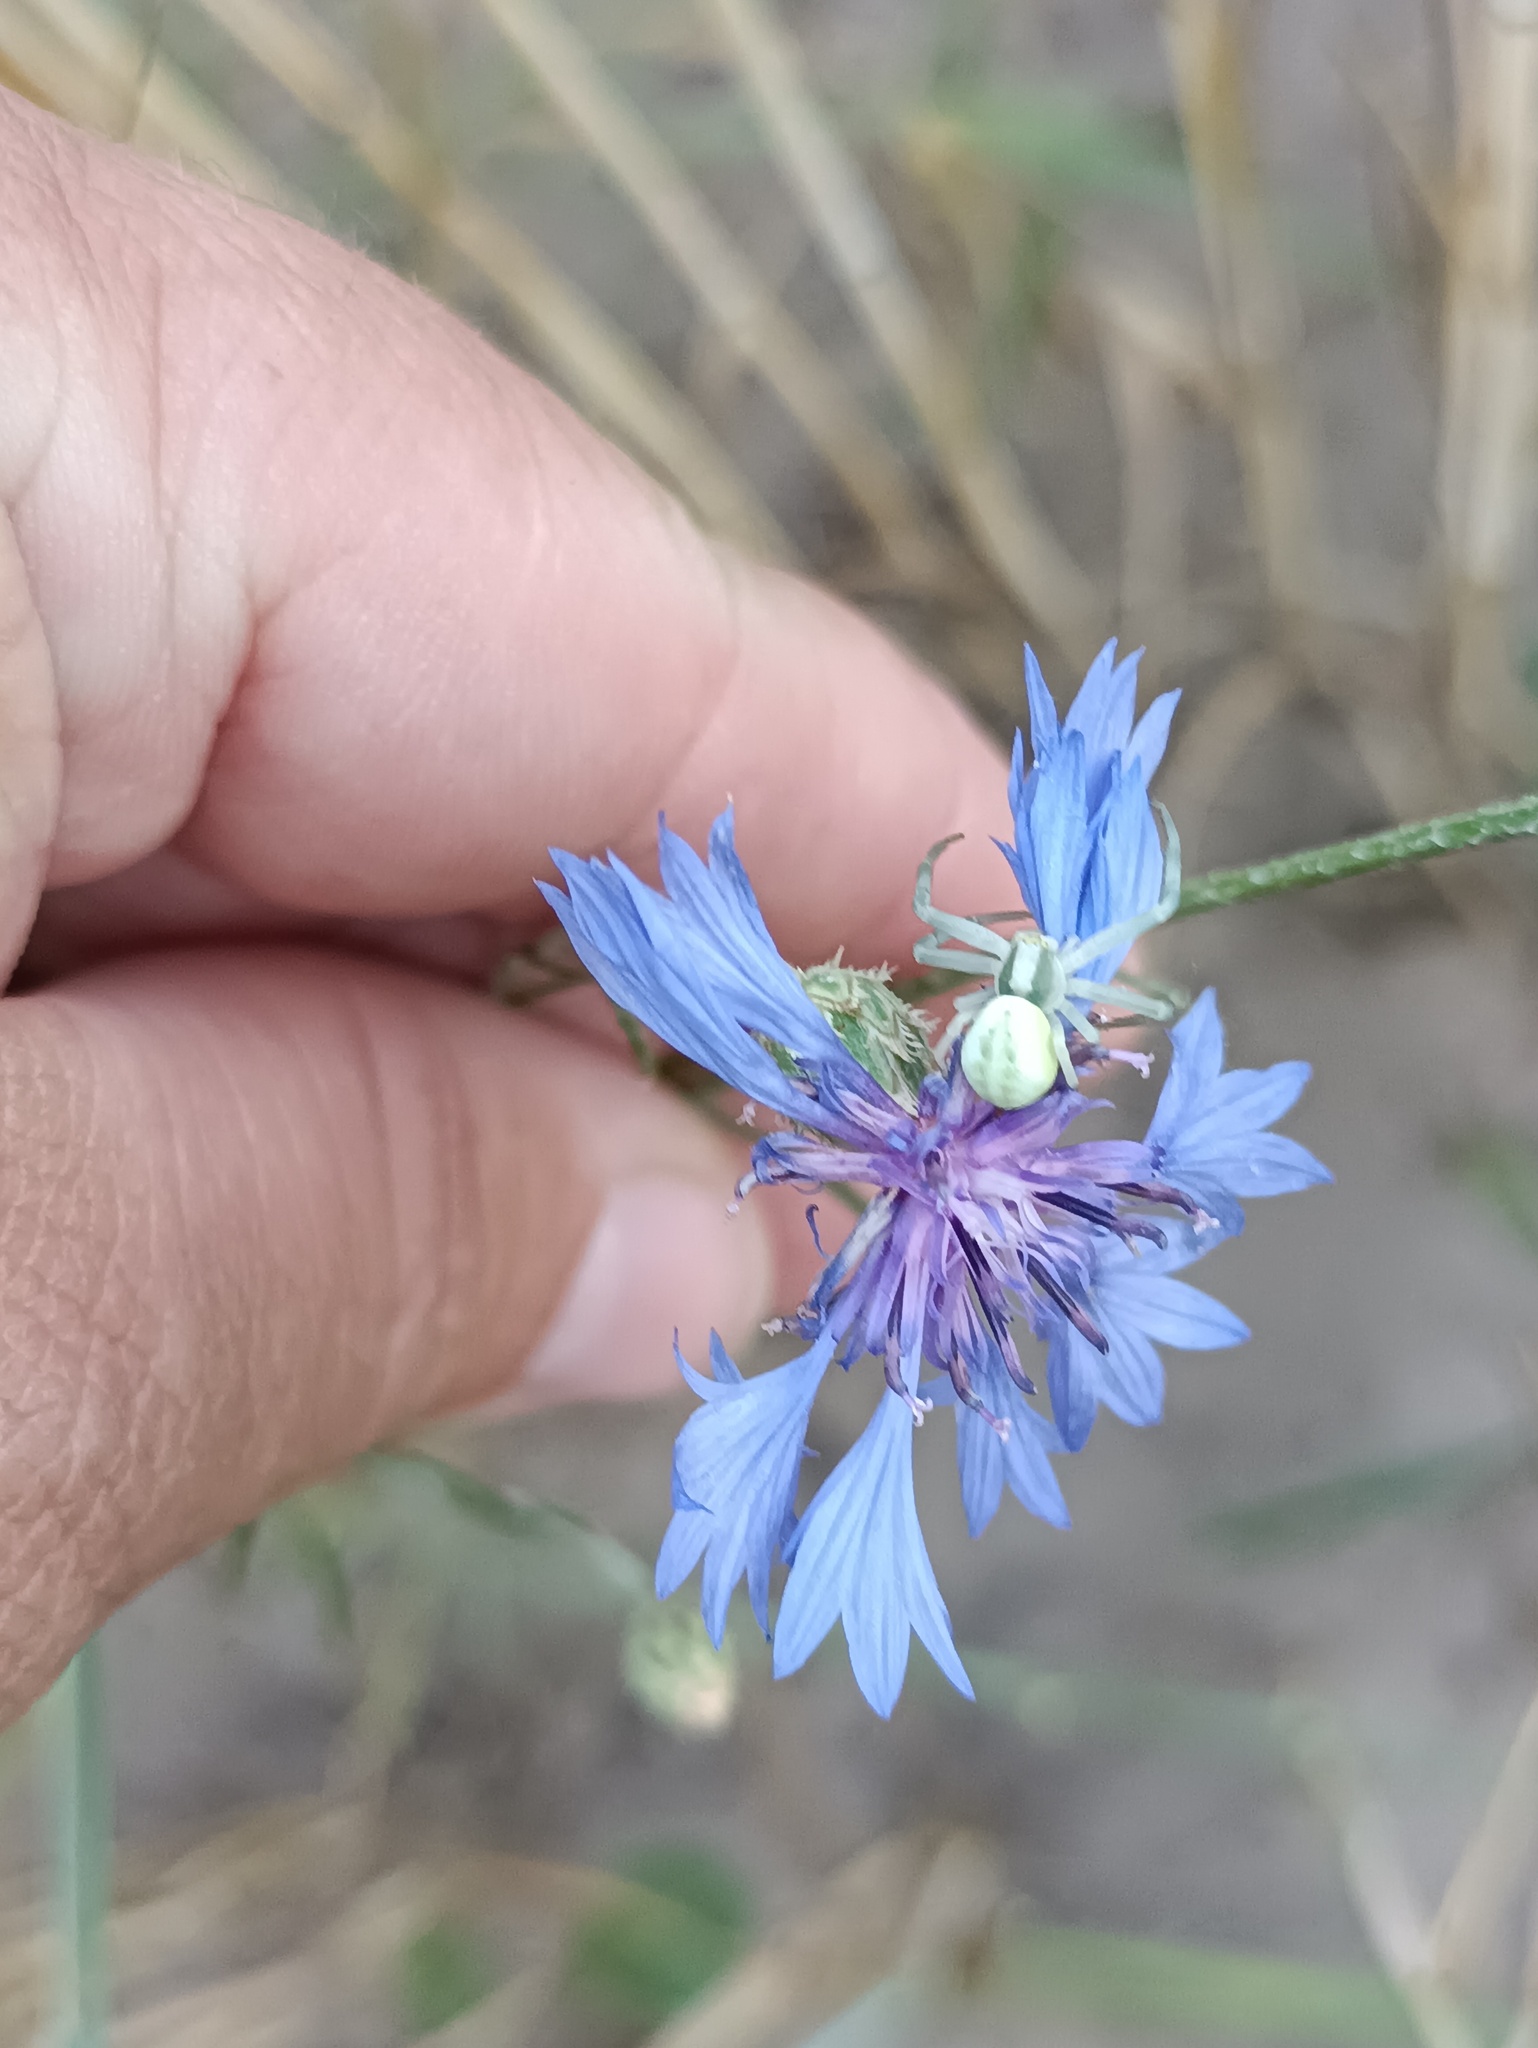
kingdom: Animalia
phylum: Arthropoda
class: Arachnida
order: Araneae
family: Thomisidae
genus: Misumena
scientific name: Misumena vatia
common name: Goldenrod crab spider
